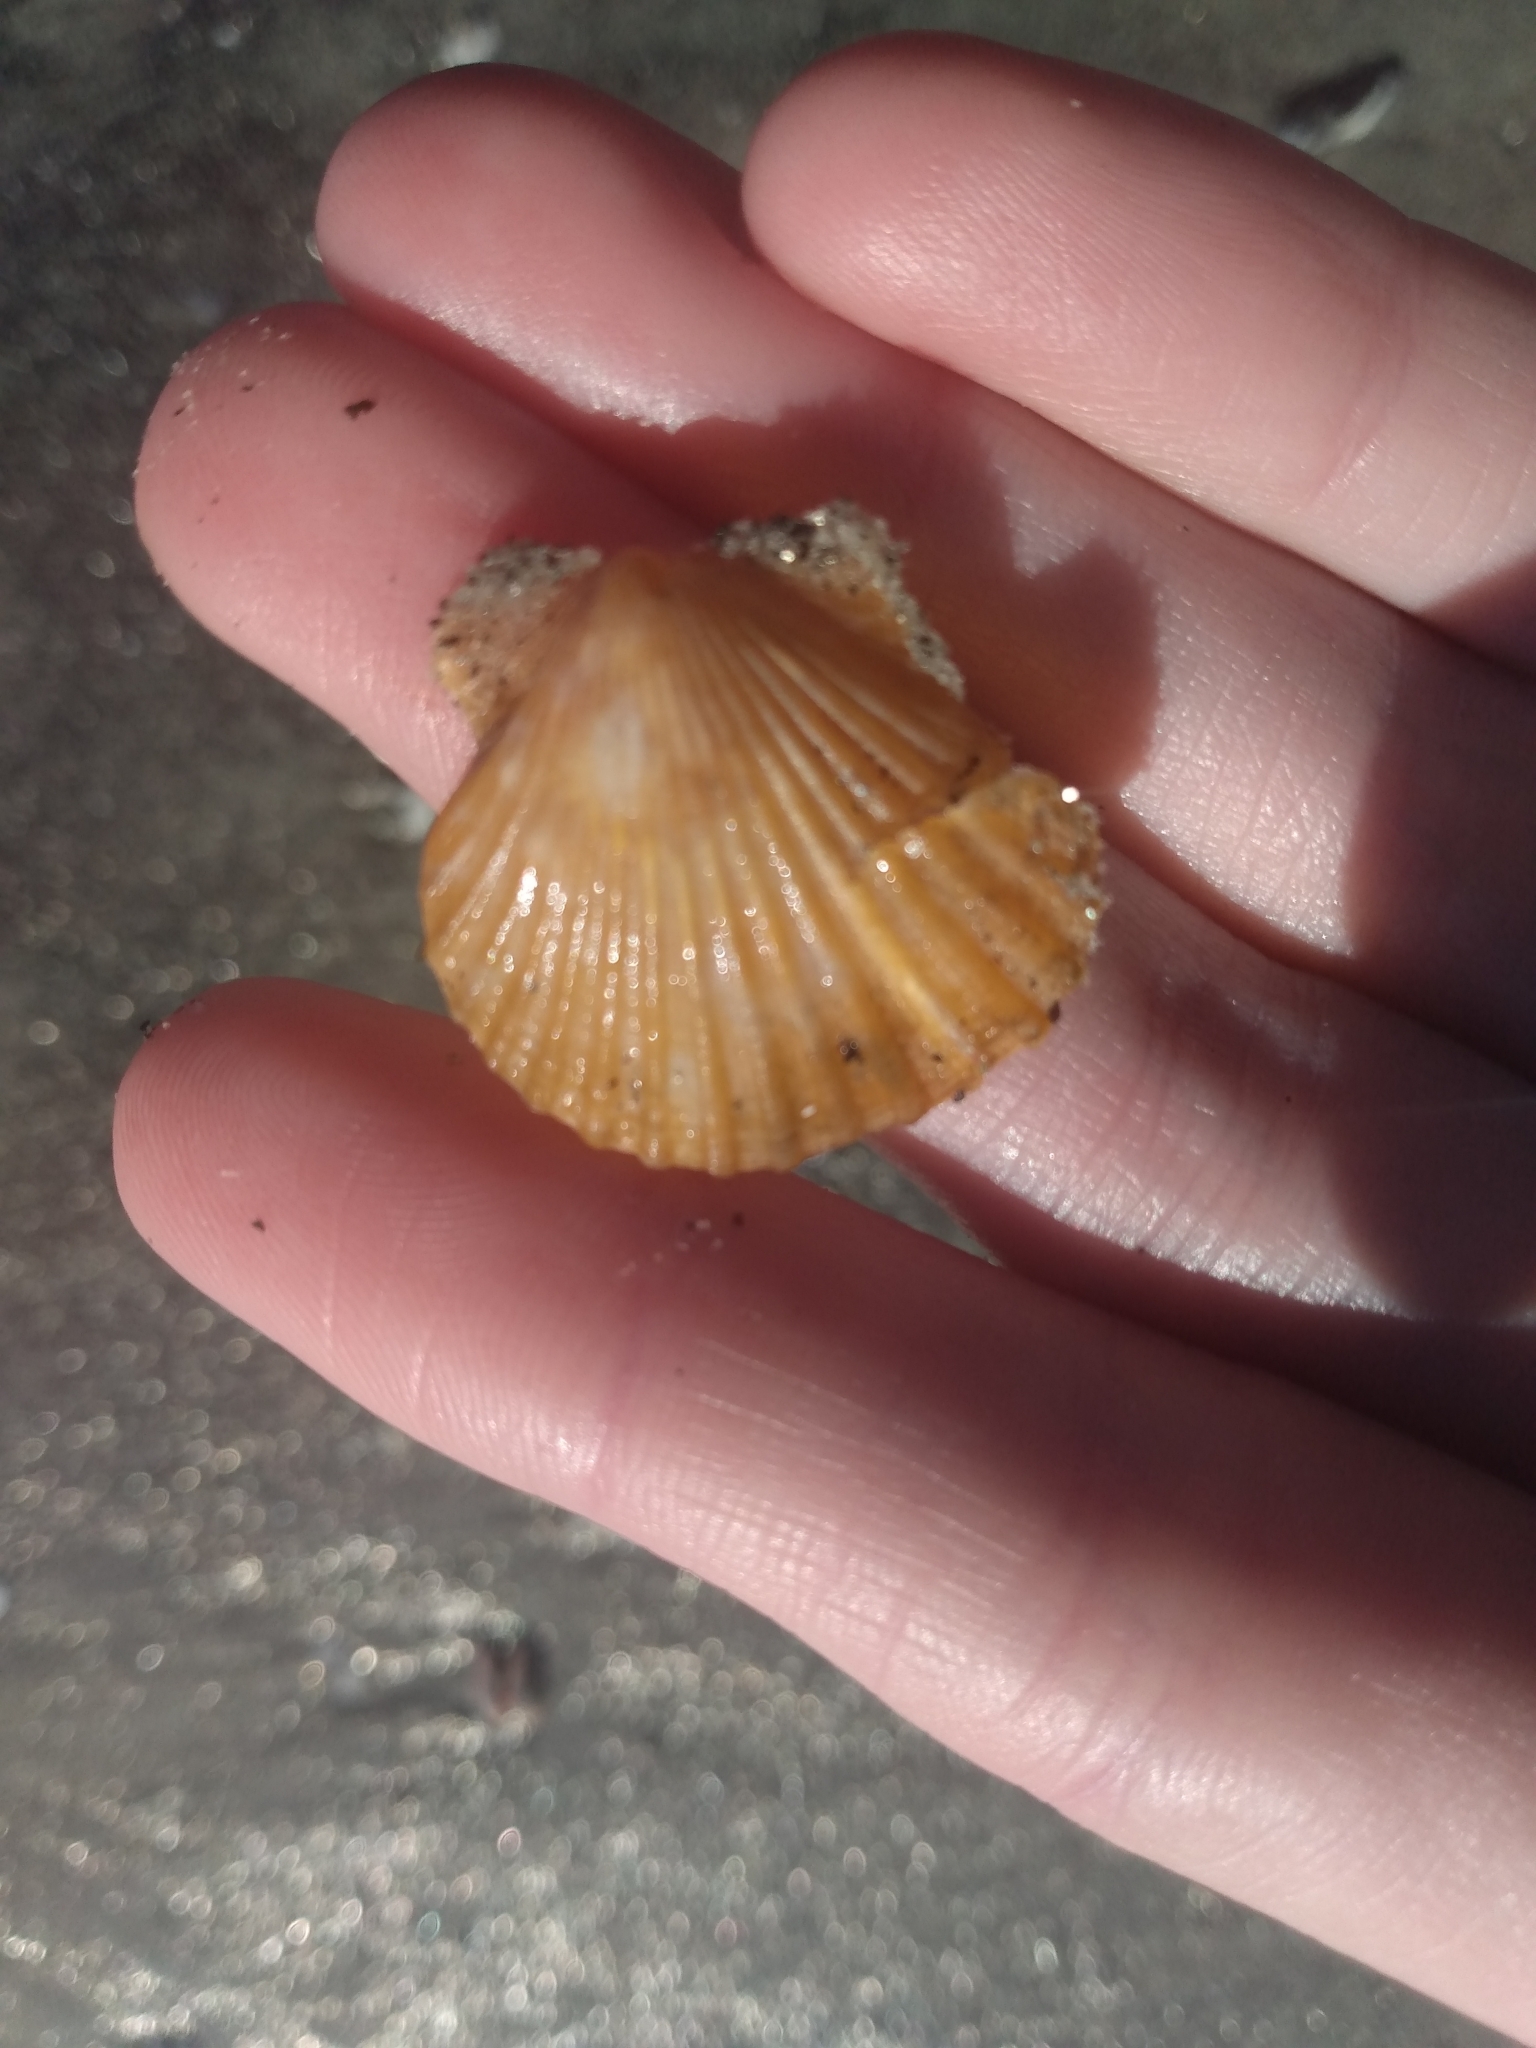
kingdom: Animalia
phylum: Mollusca
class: Bivalvia
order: Pectinida
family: Pectinidae
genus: Leptopecten
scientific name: Leptopecten latiauratus
